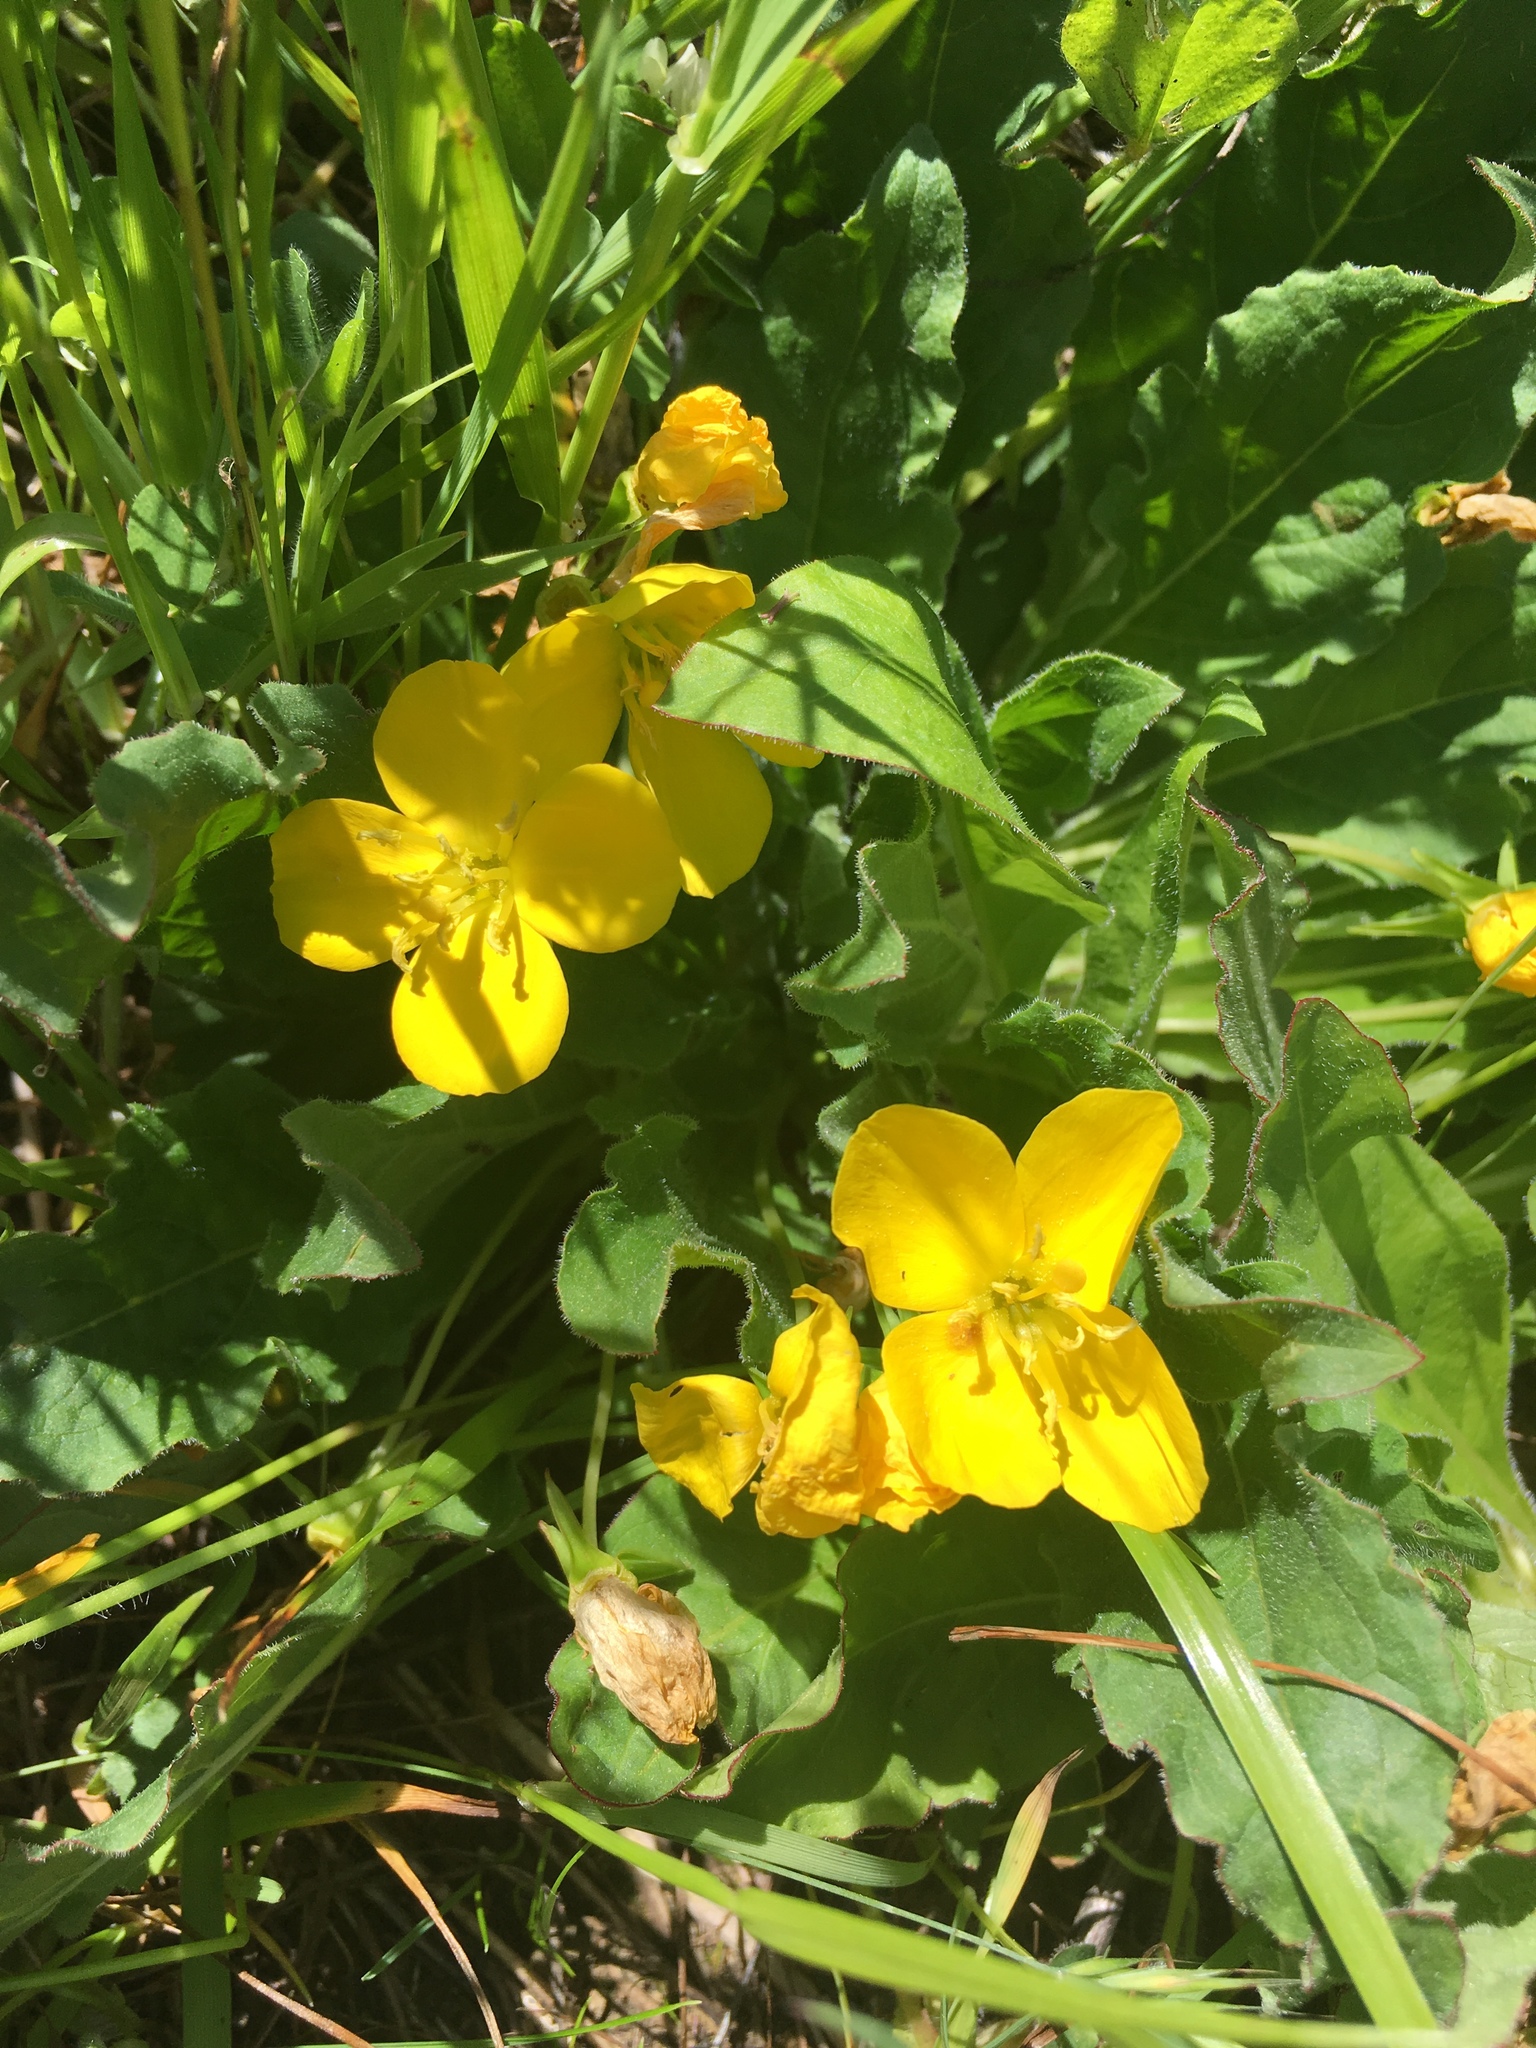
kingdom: Plantae
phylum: Tracheophyta
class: Magnoliopsida
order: Myrtales
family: Onagraceae
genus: Taraxia
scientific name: Taraxia ovata
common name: Goldeneggs
